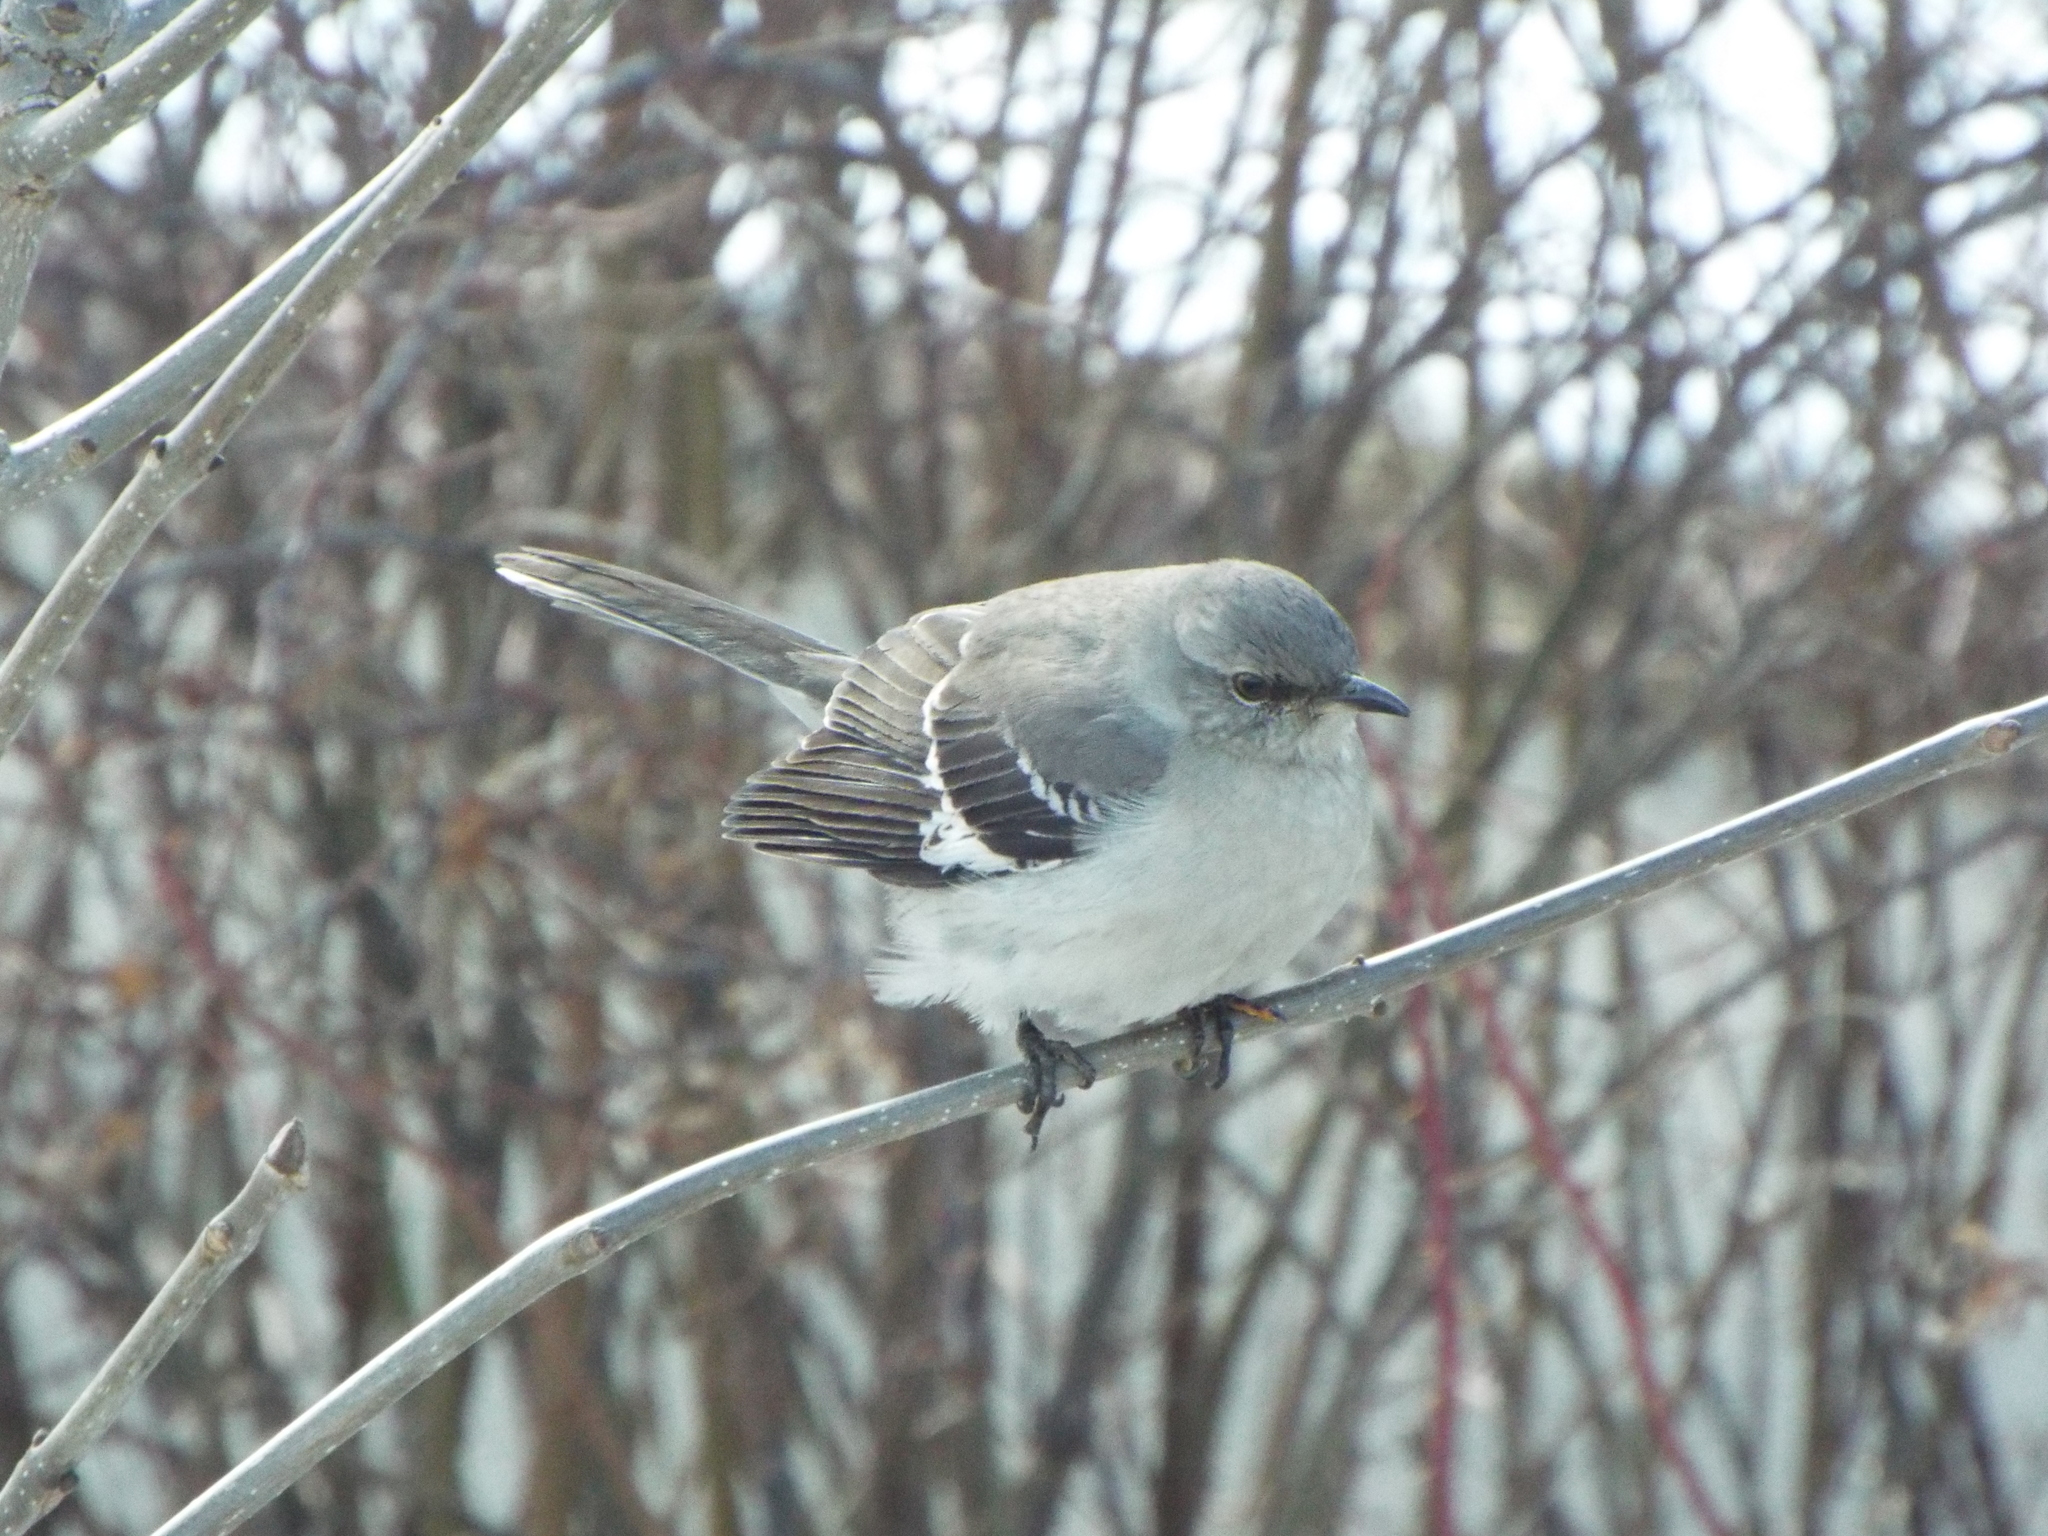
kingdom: Animalia
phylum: Chordata
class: Aves
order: Passeriformes
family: Mimidae
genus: Mimus
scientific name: Mimus polyglottos
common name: Northern mockingbird
